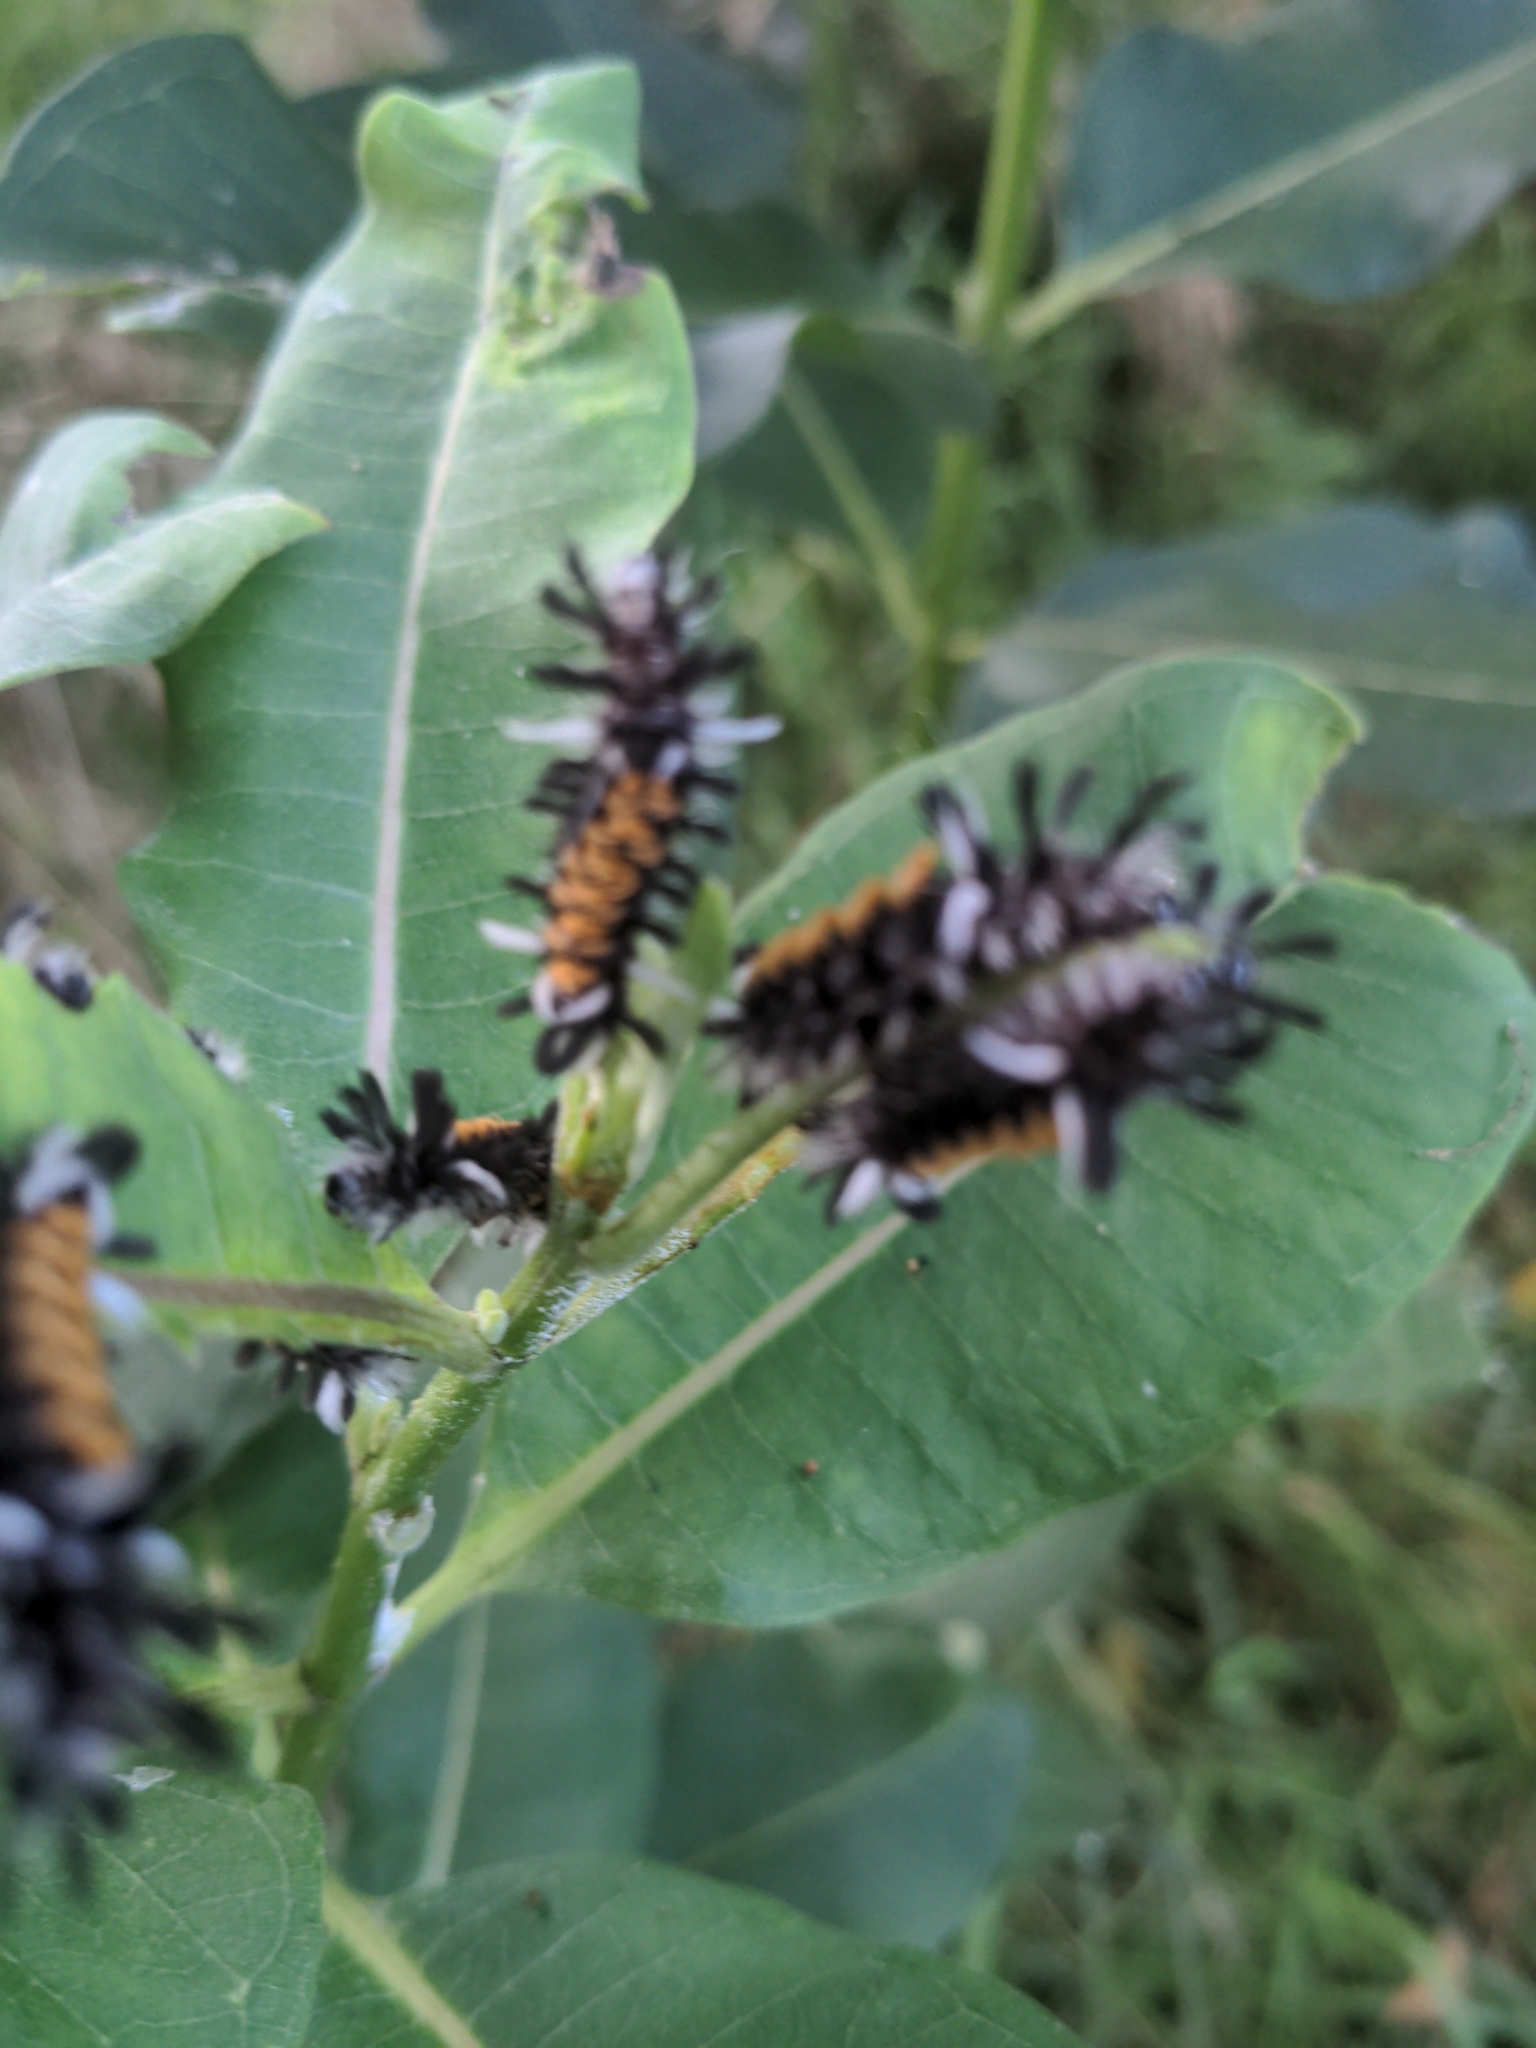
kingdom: Animalia
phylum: Arthropoda
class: Insecta
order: Lepidoptera
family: Erebidae
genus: Euchaetes
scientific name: Euchaetes egle
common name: Milkweed tussock moth
